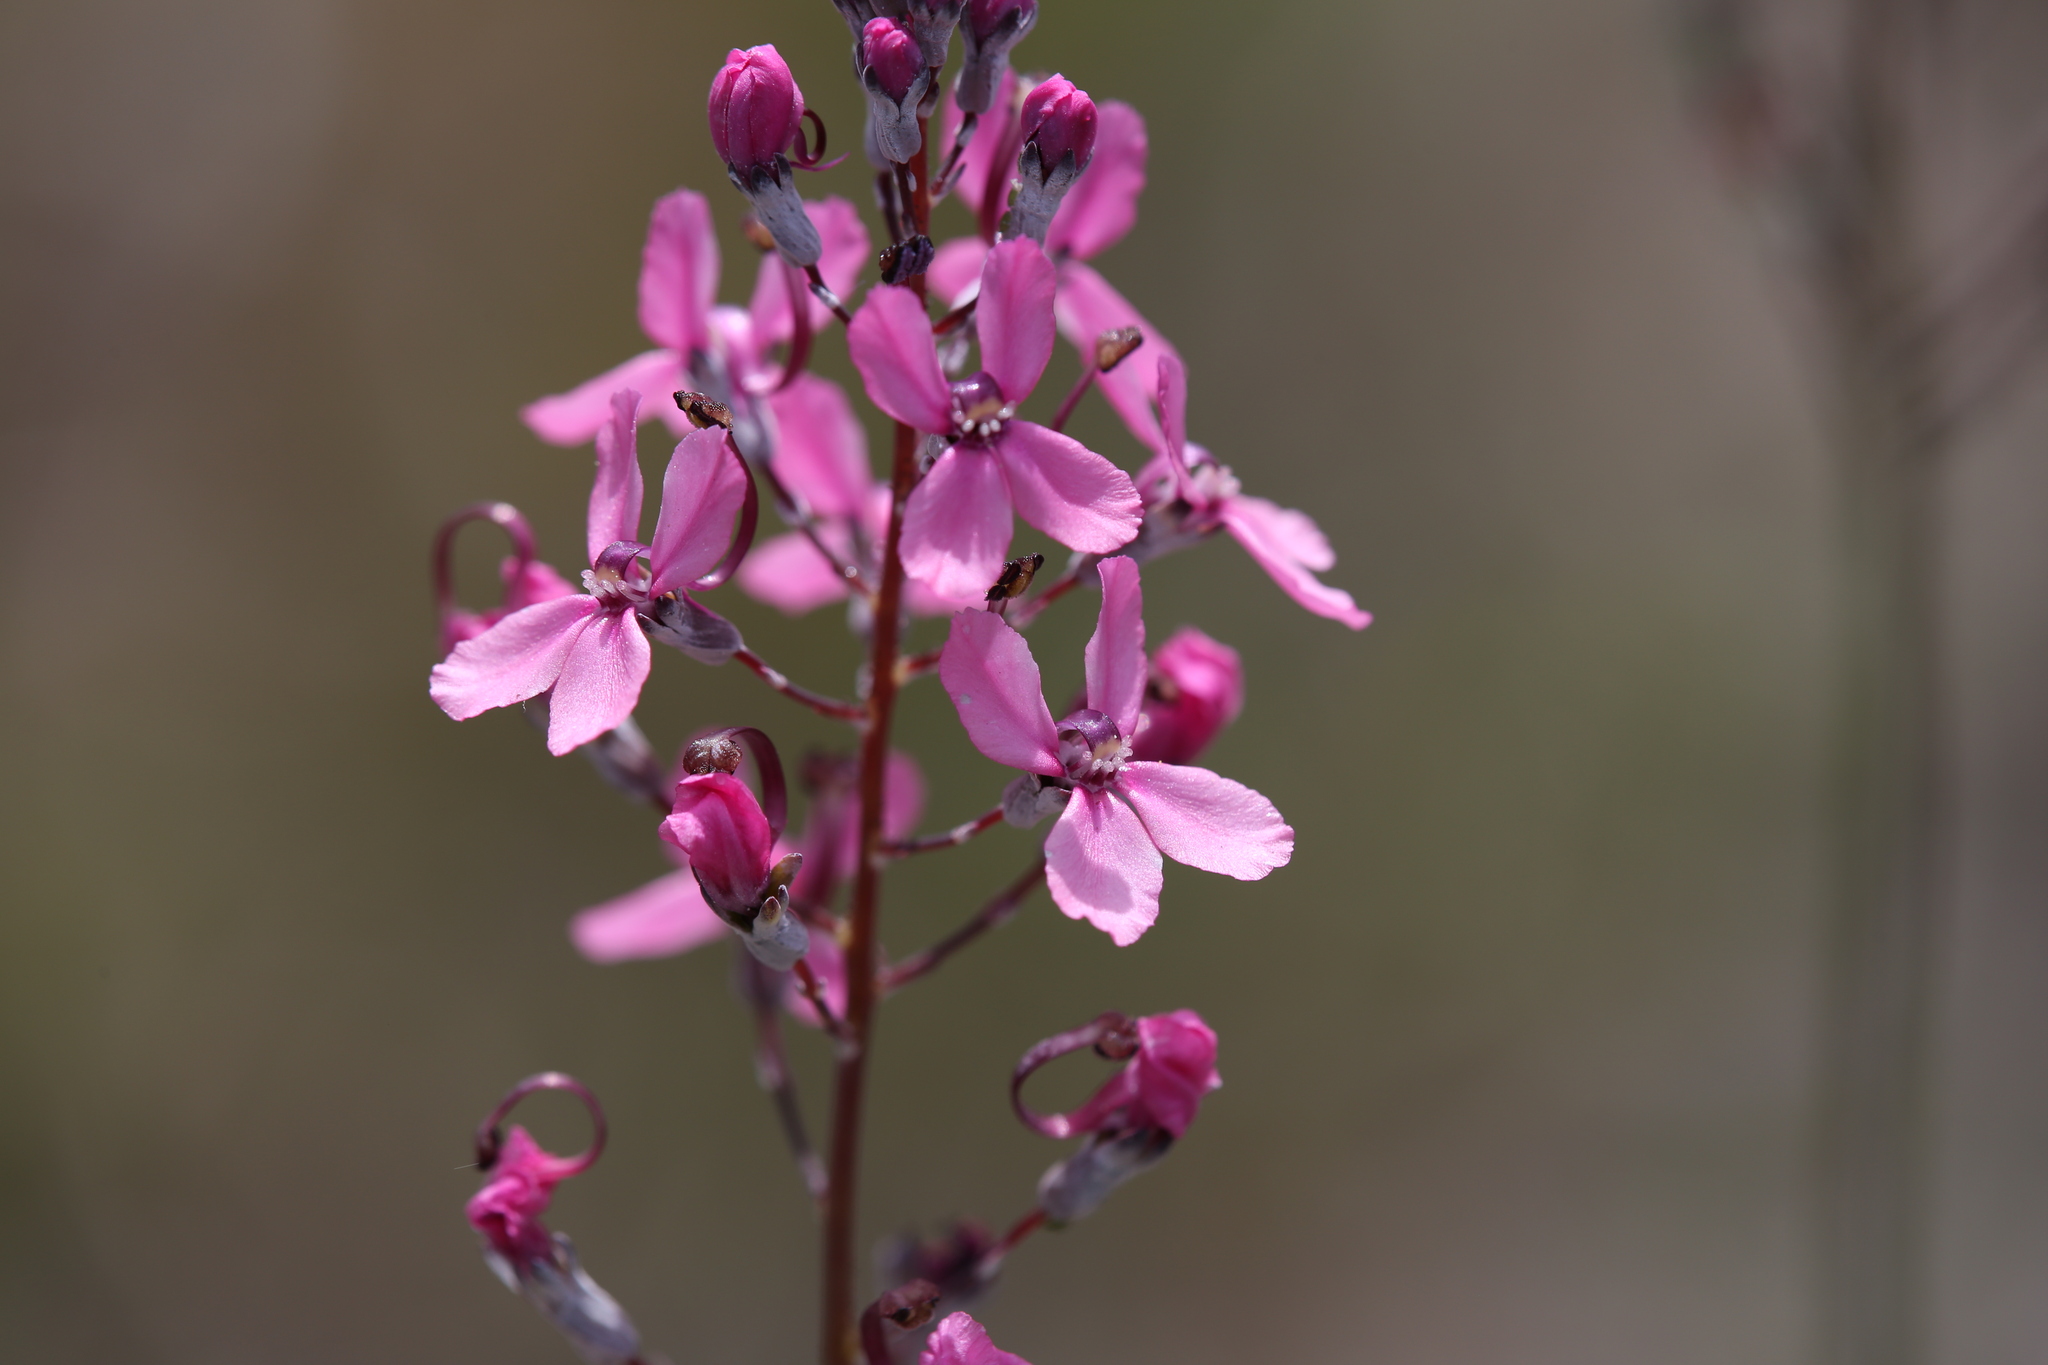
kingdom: Plantae
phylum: Tracheophyta
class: Magnoliopsida
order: Asterales
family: Stylidiaceae
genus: Stylidium
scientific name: Stylidium brunonianum
